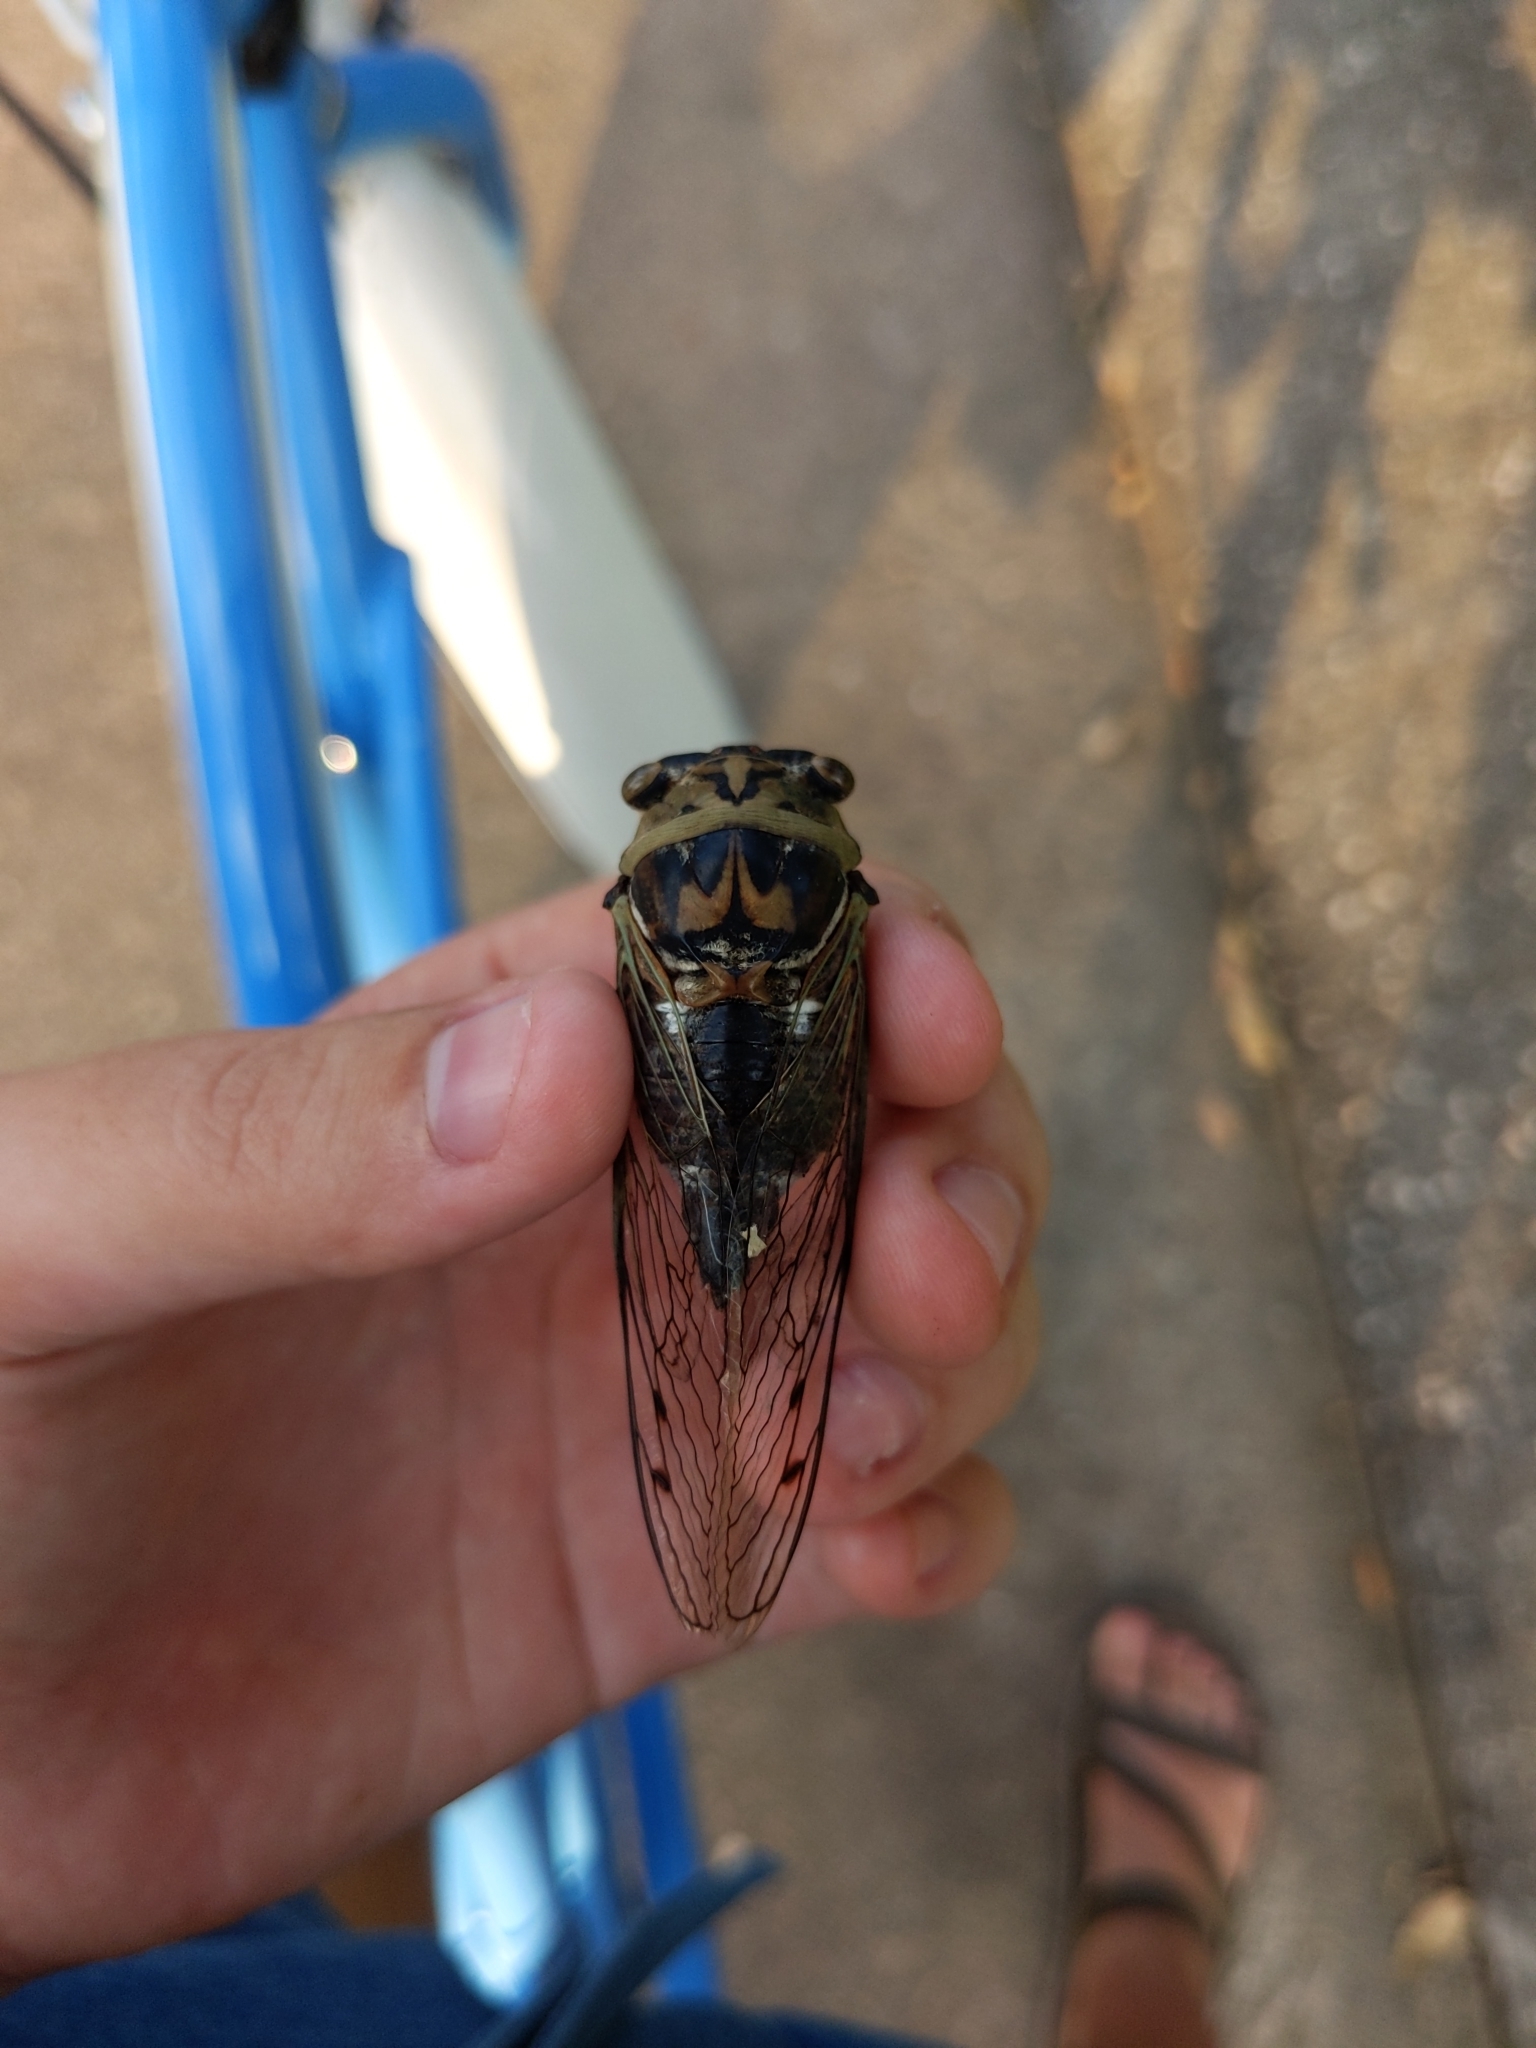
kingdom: Animalia
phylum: Arthropoda
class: Insecta
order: Hemiptera
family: Cicadidae
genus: Megatibicen
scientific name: Megatibicen resh
